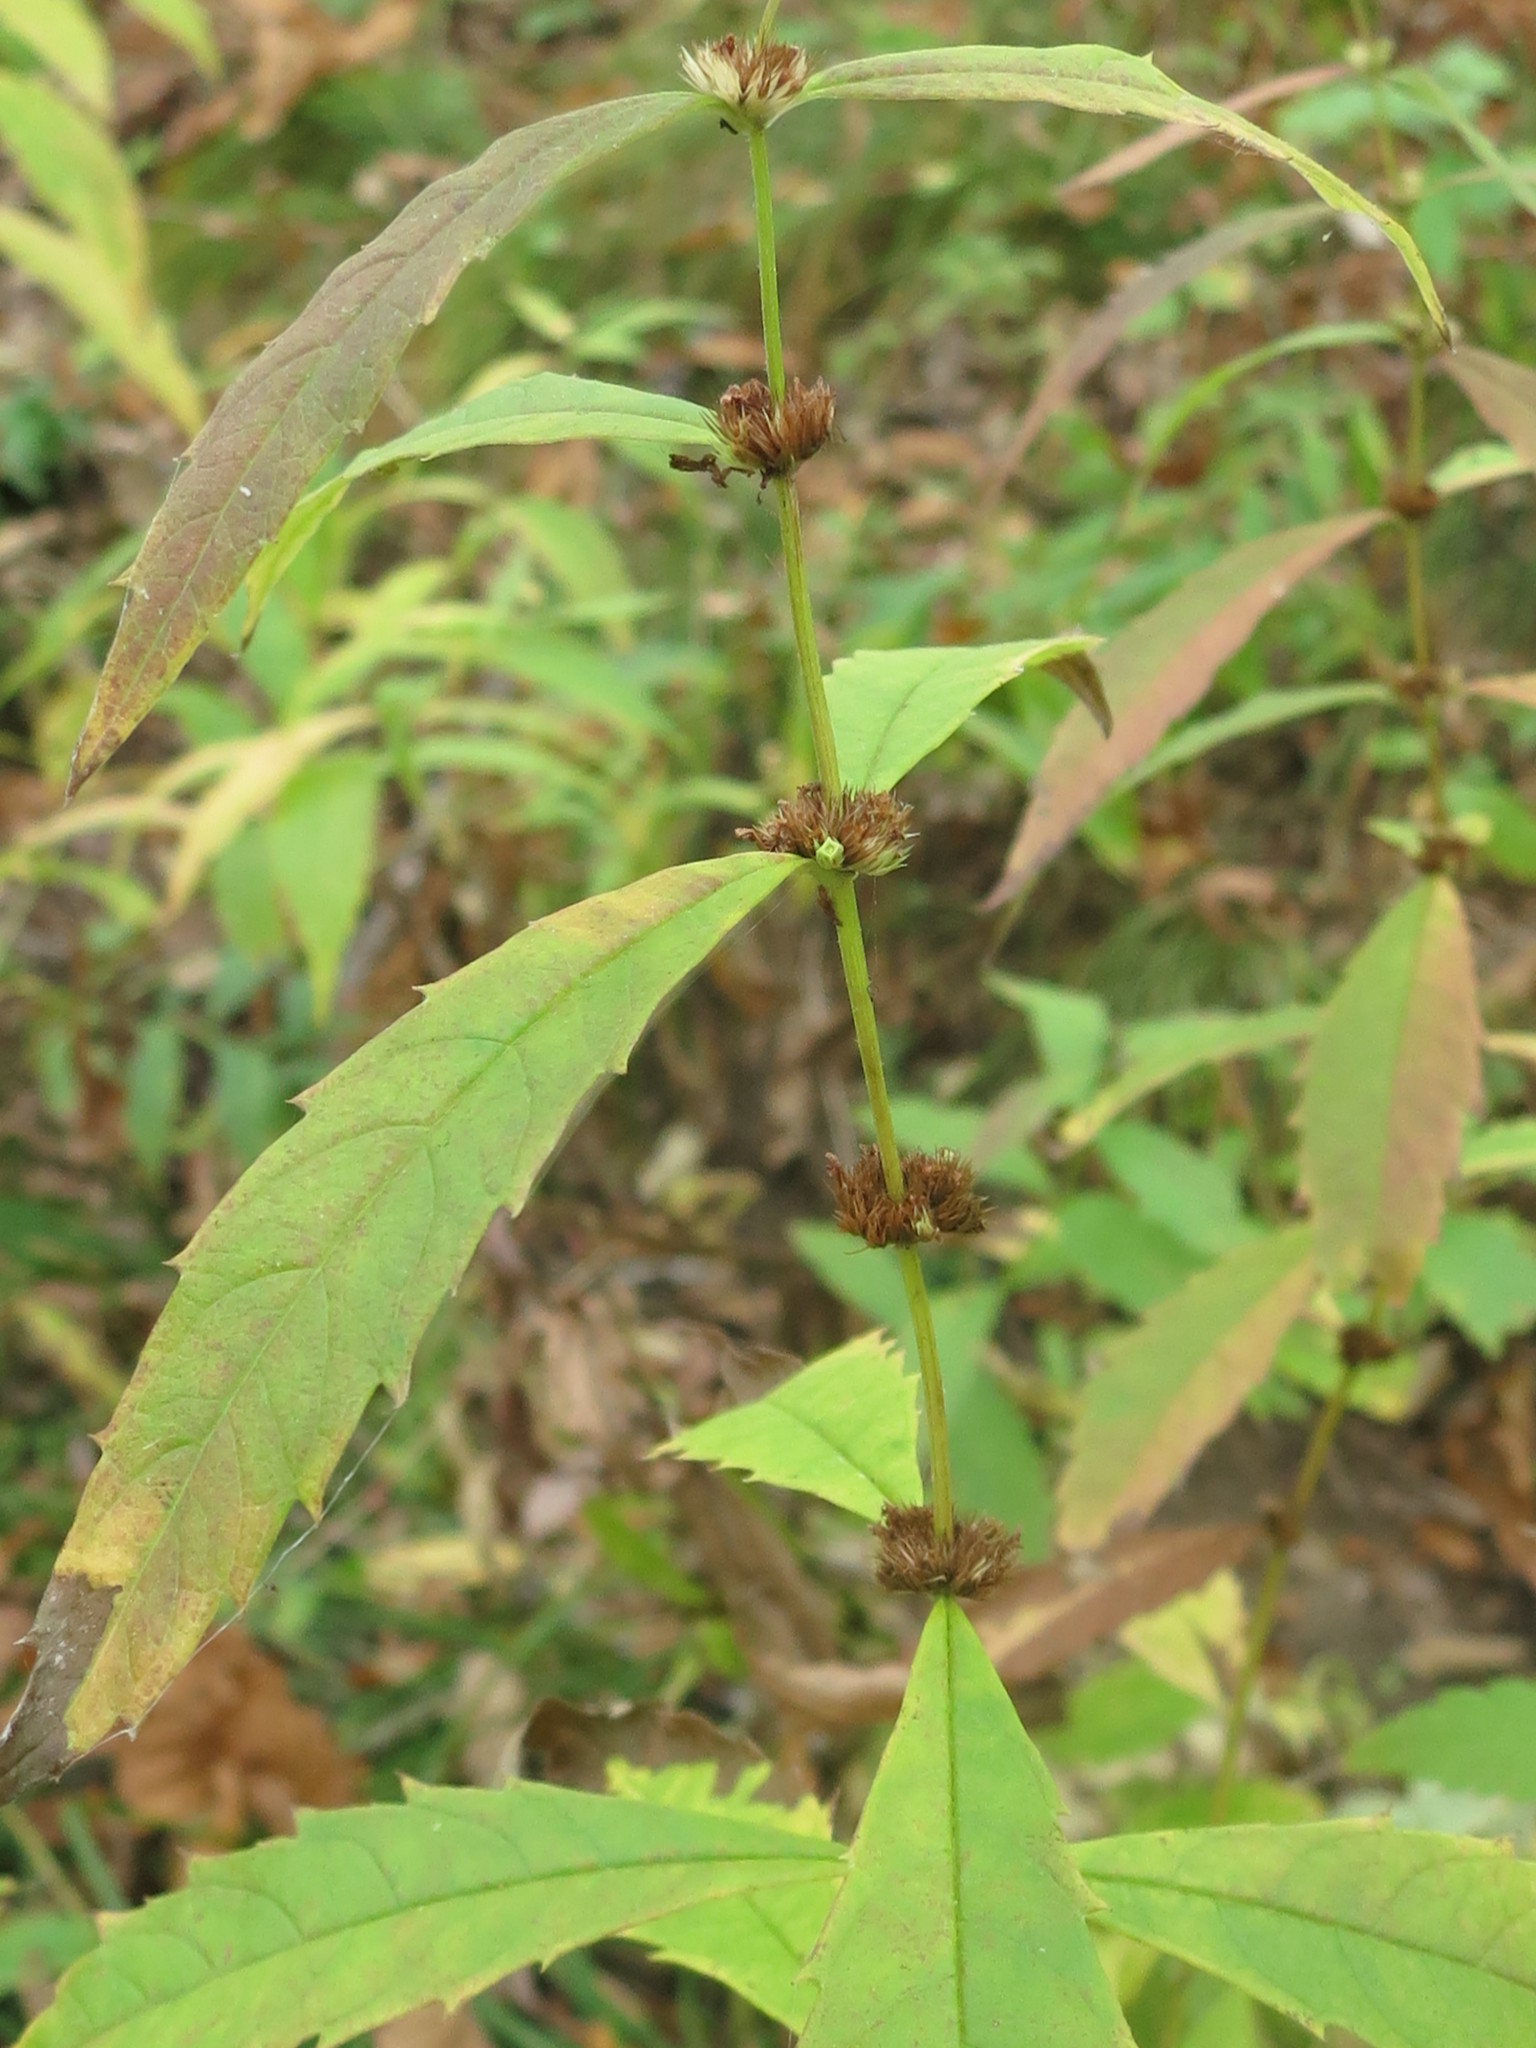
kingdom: Plantae
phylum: Tracheophyta
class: Magnoliopsida
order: Lamiales
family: Lamiaceae
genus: Lycopus
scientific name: Lycopus charkeviczii
